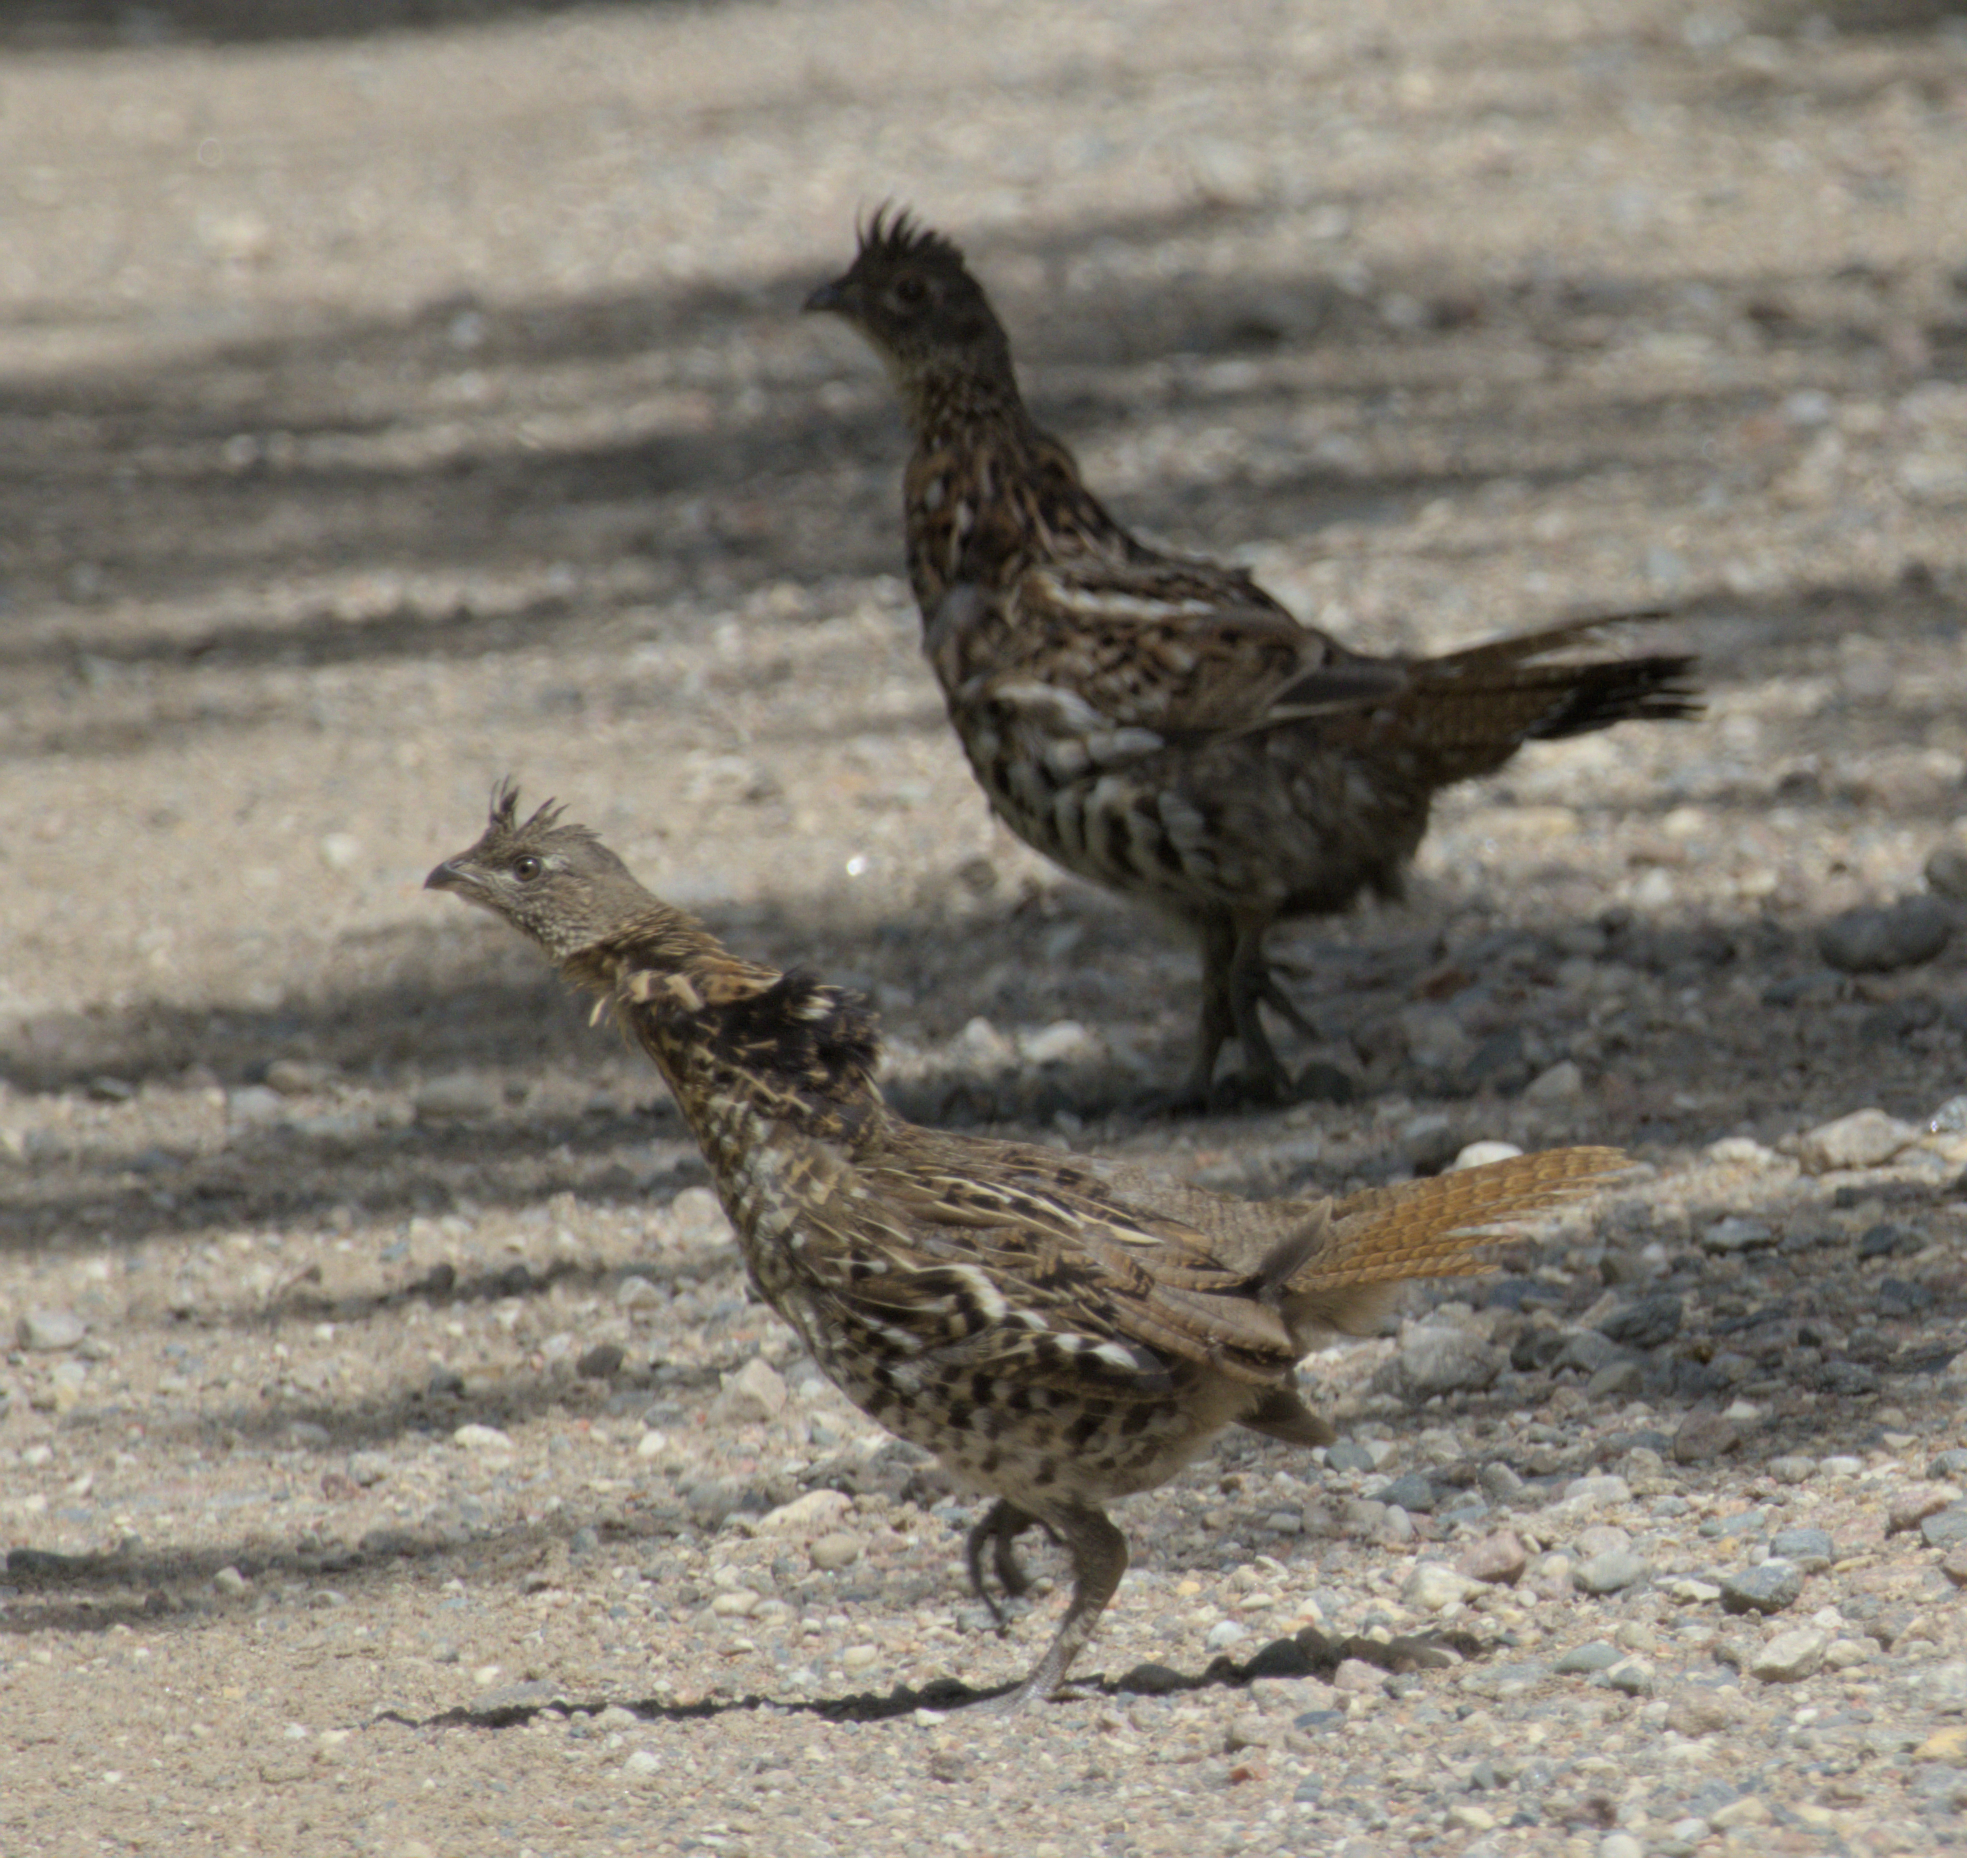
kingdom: Animalia
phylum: Chordata
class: Aves
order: Galliformes
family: Phasianidae
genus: Bonasa
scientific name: Bonasa umbellus
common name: Ruffed grouse
